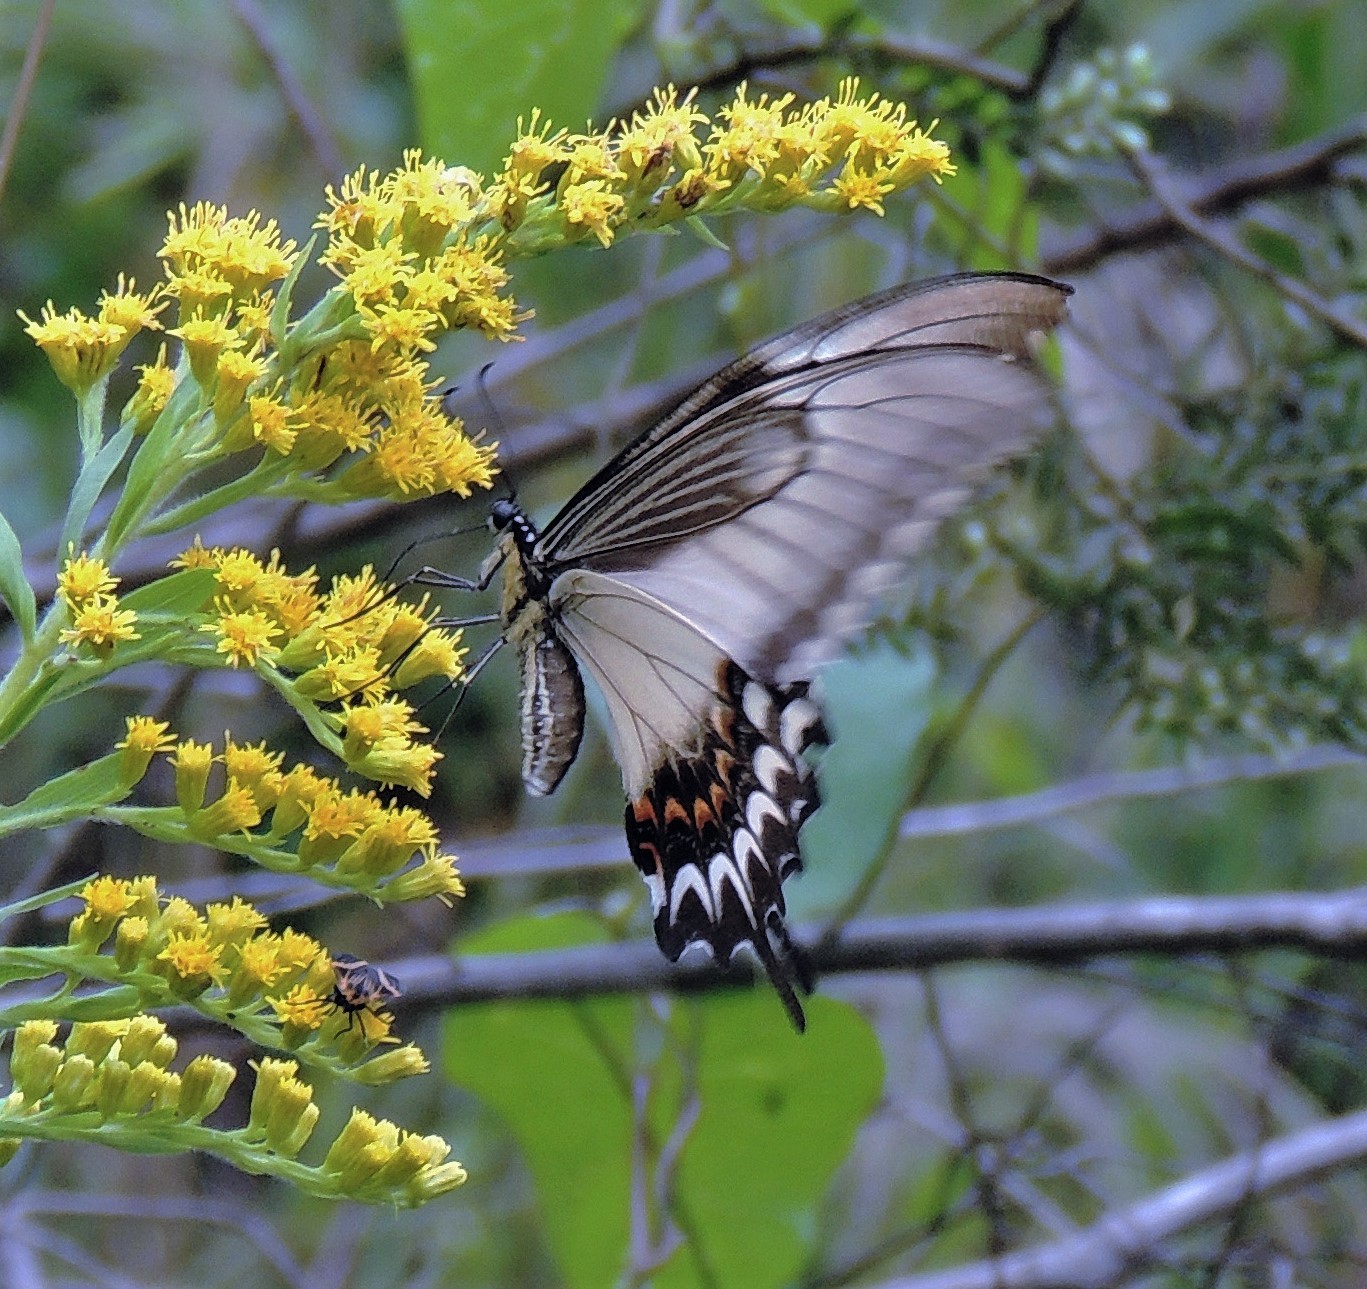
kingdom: Animalia
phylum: Arthropoda
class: Insecta
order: Lepidoptera
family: Papilionidae
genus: Papilio
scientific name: Papilio astyalus
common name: Astyalus swallowtail
